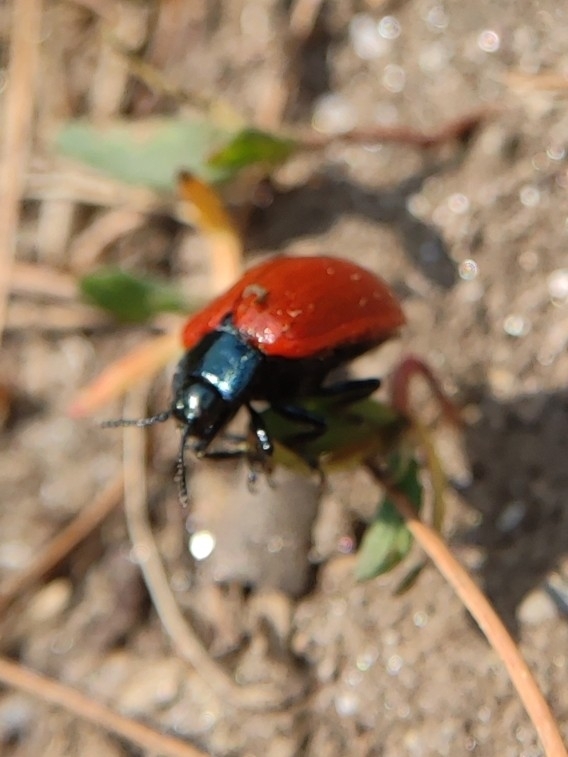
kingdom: Animalia
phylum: Arthropoda
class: Insecta
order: Coleoptera
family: Chrysomelidae
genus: Chrysomela
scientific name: Chrysomela populi
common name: Red poplar leaf beetle
